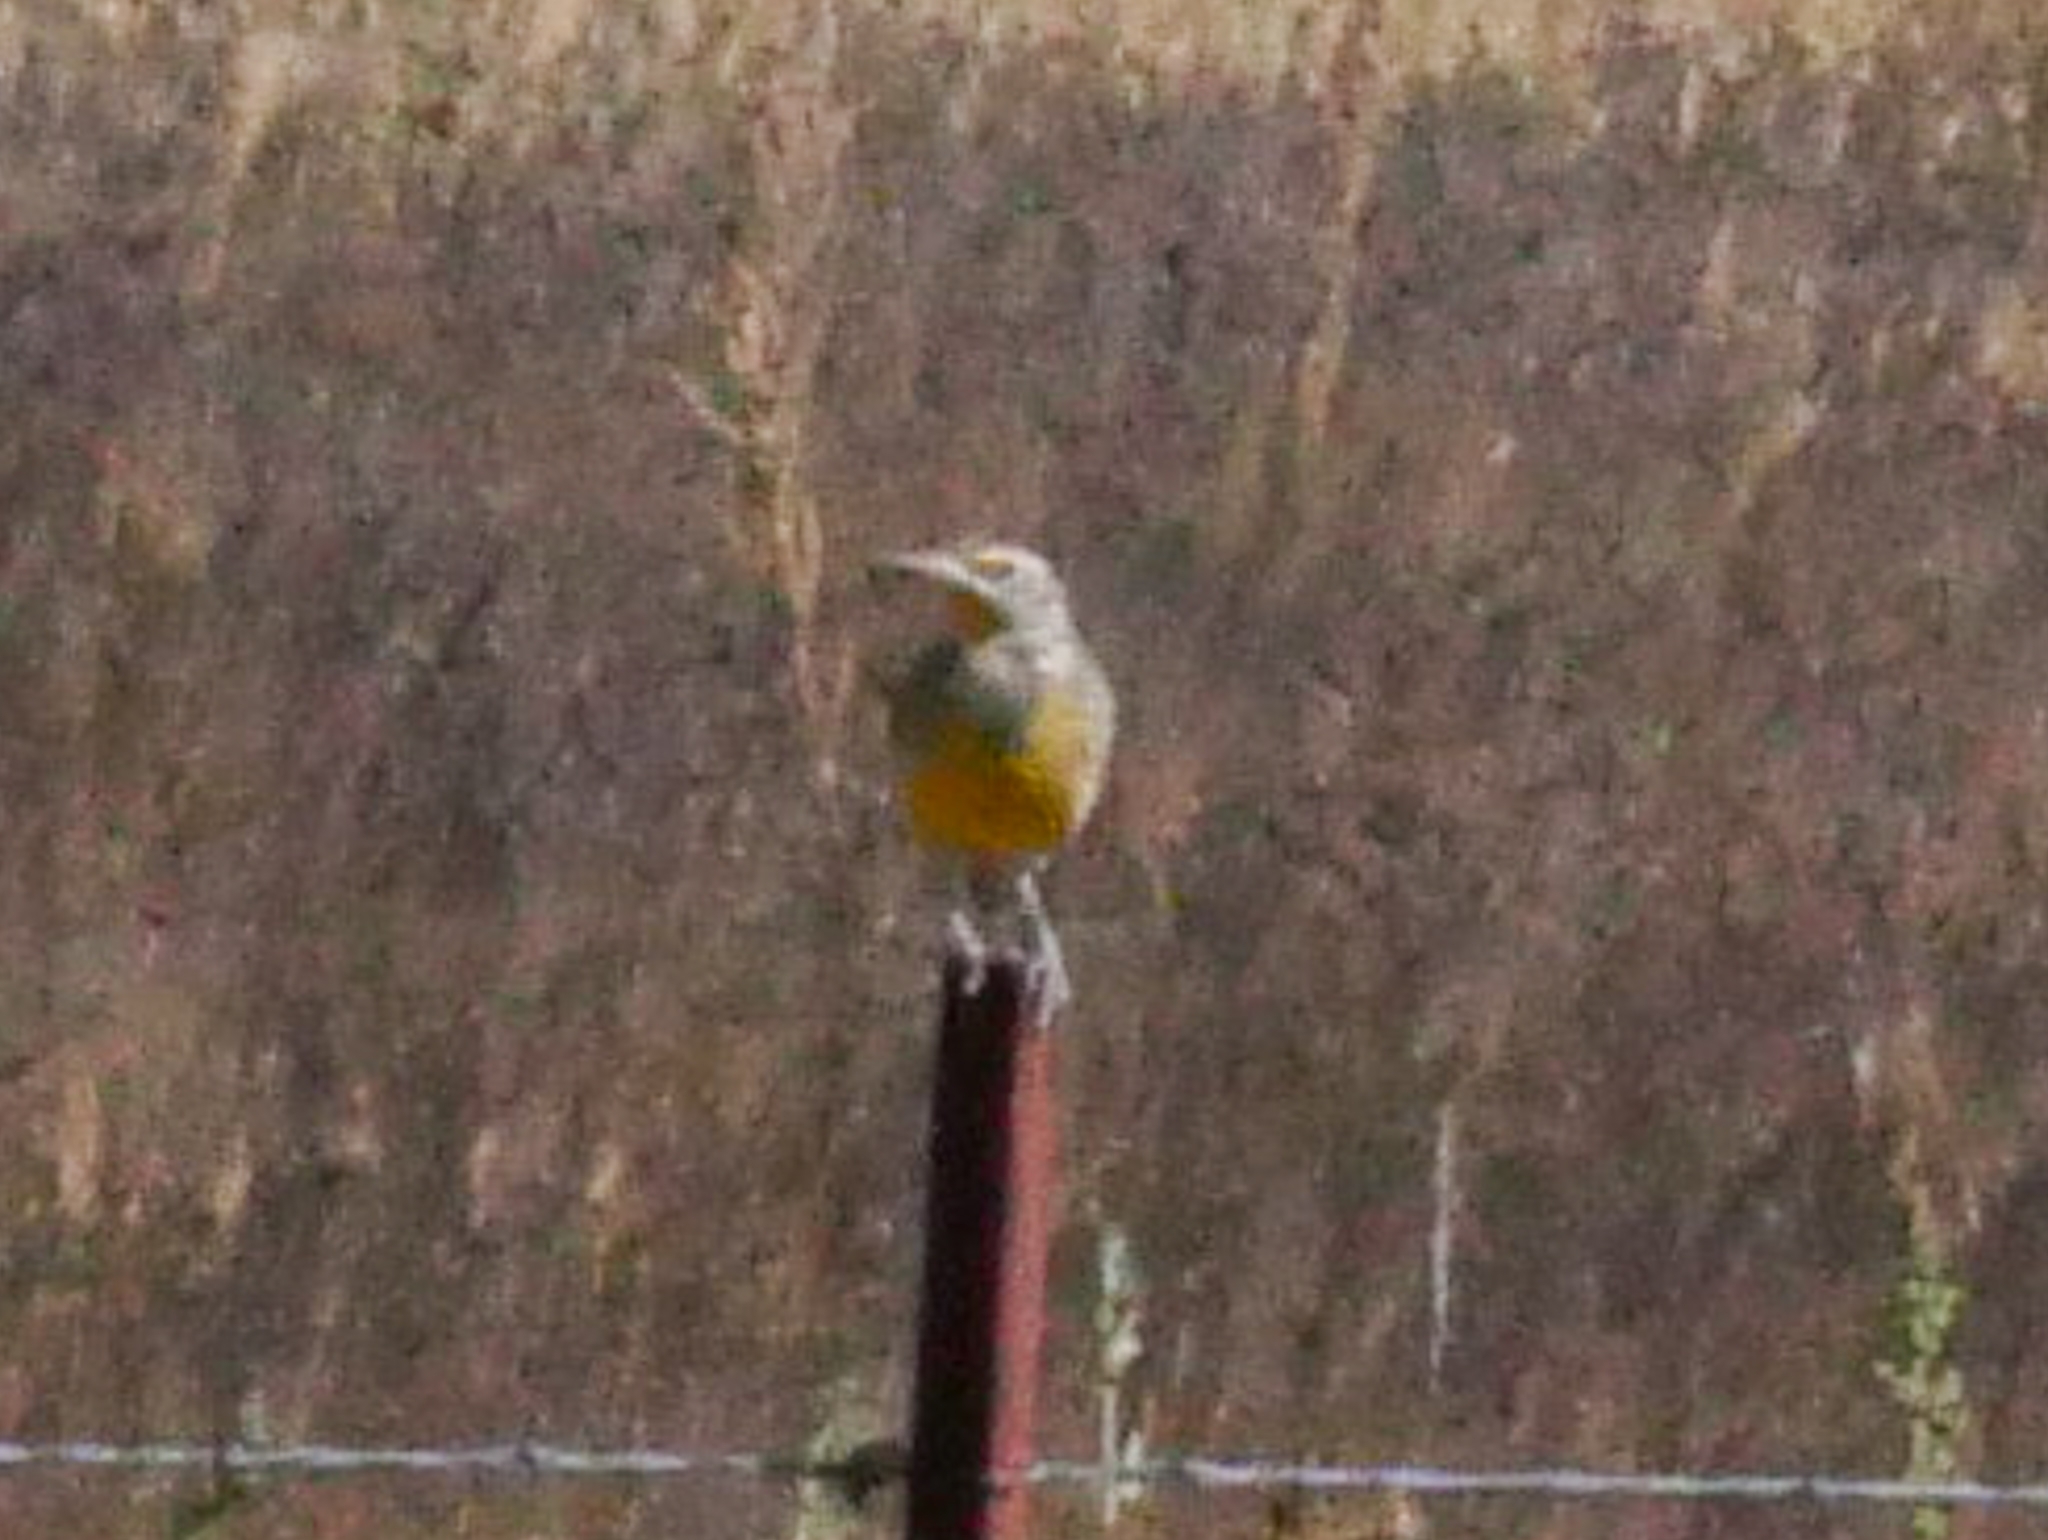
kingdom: Animalia
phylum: Chordata
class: Aves
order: Passeriformes
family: Icteridae
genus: Sturnella
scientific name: Sturnella neglecta
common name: Western meadowlark
